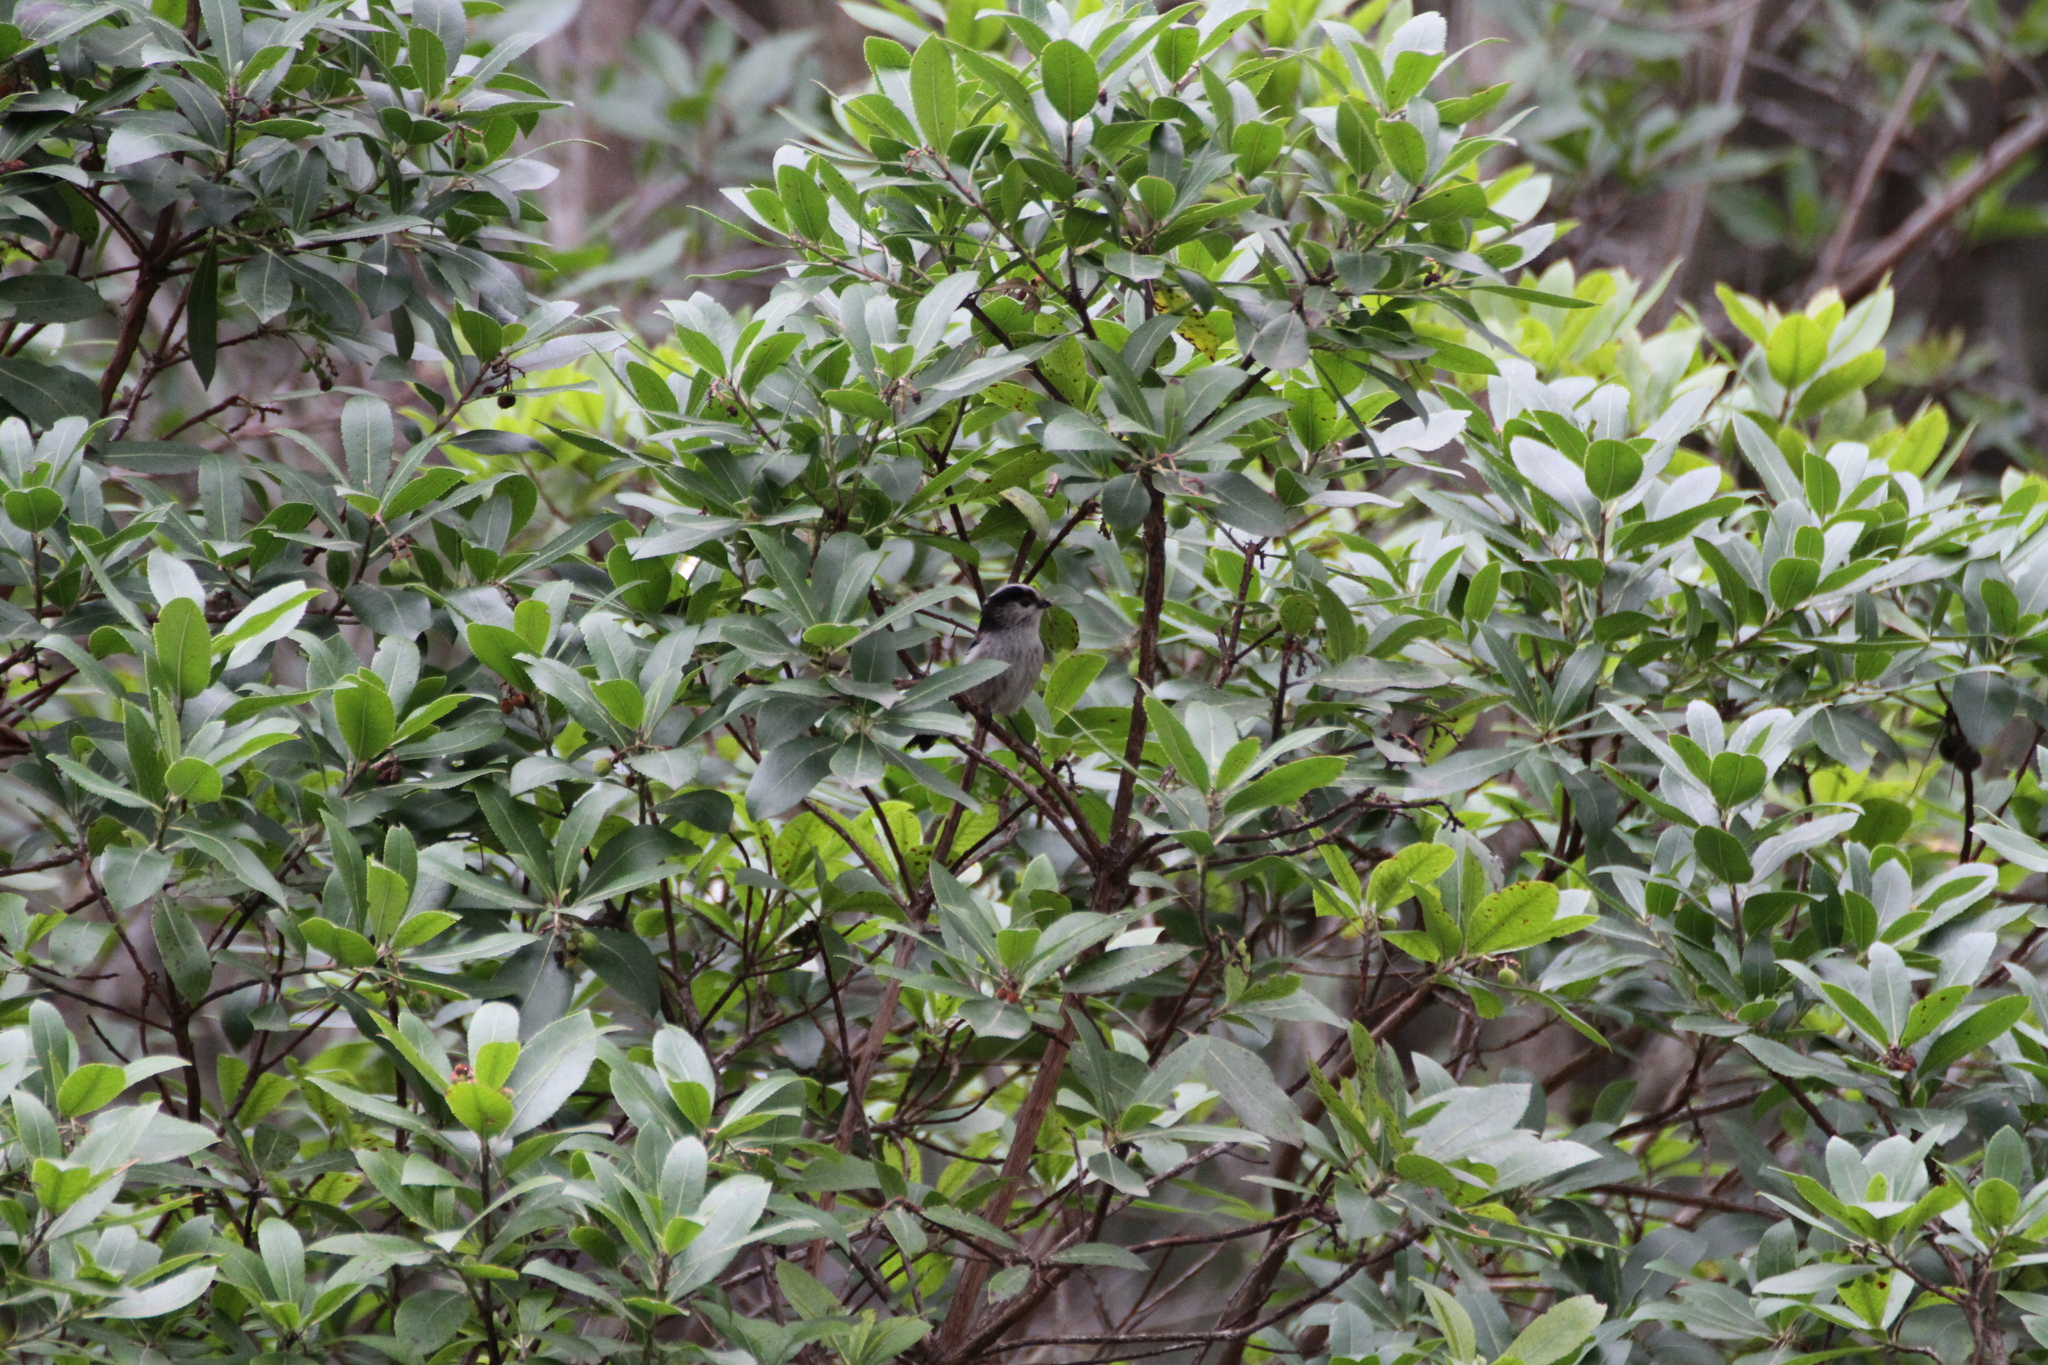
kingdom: Animalia
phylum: Chordata
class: Aves
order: Passeriformes
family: Aegithalidae
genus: Aegithalos
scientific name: Aegithalos caudatus
